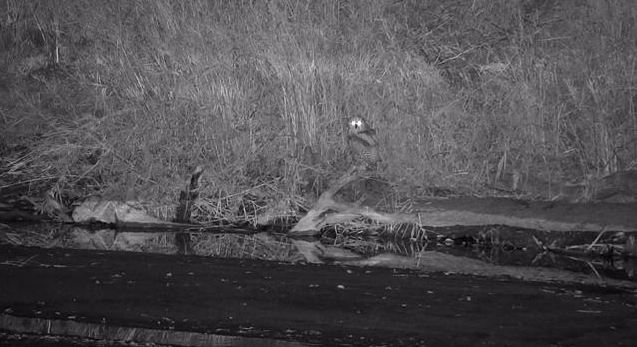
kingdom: Animalia
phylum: Chordata
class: Aves
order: Strigiformes
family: Strigidae
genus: Scotopelia
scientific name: Scotopelia peli
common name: Pel's fishing owl
